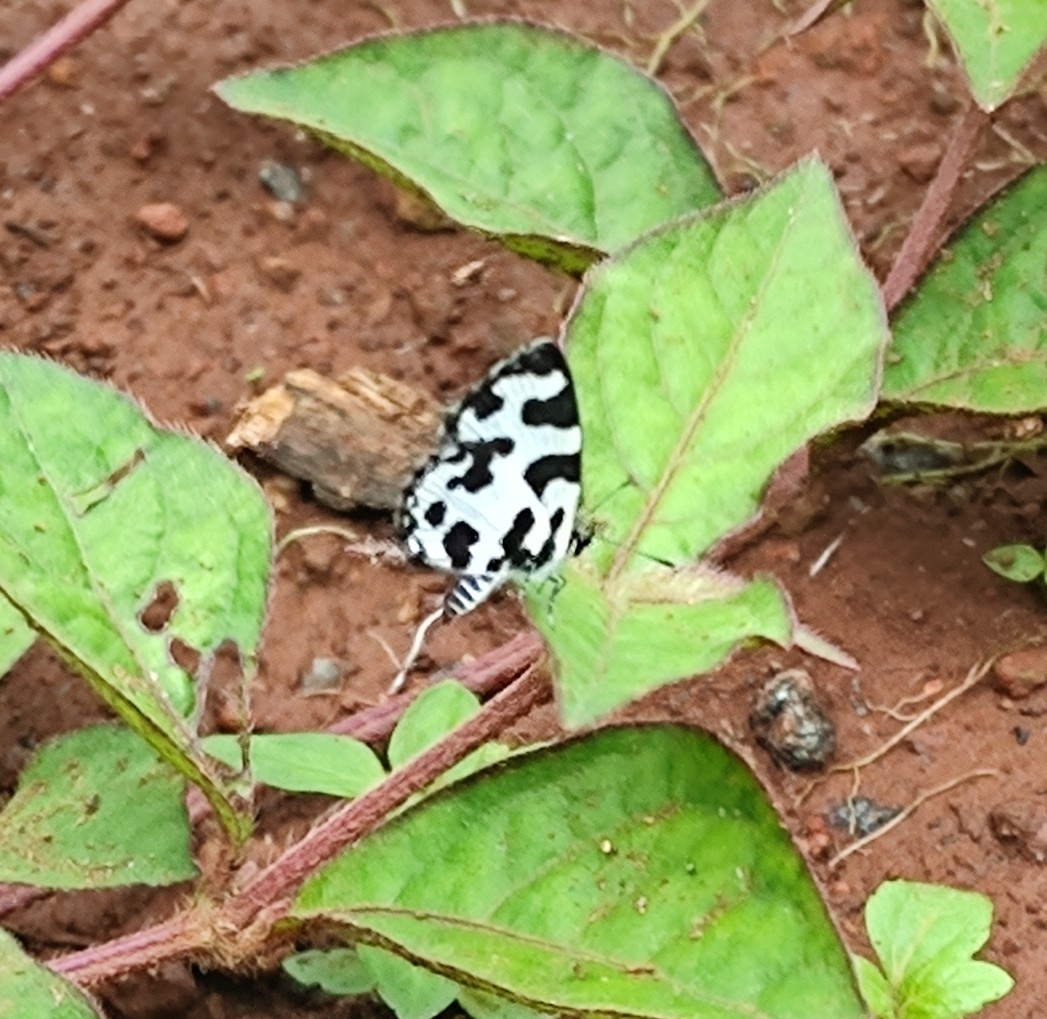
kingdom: Animalia
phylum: Arthropoda
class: Insecta
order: Lepidoptera
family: Lycaenidae
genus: Caleta
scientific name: Caleta decidia
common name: Angled pierrot
